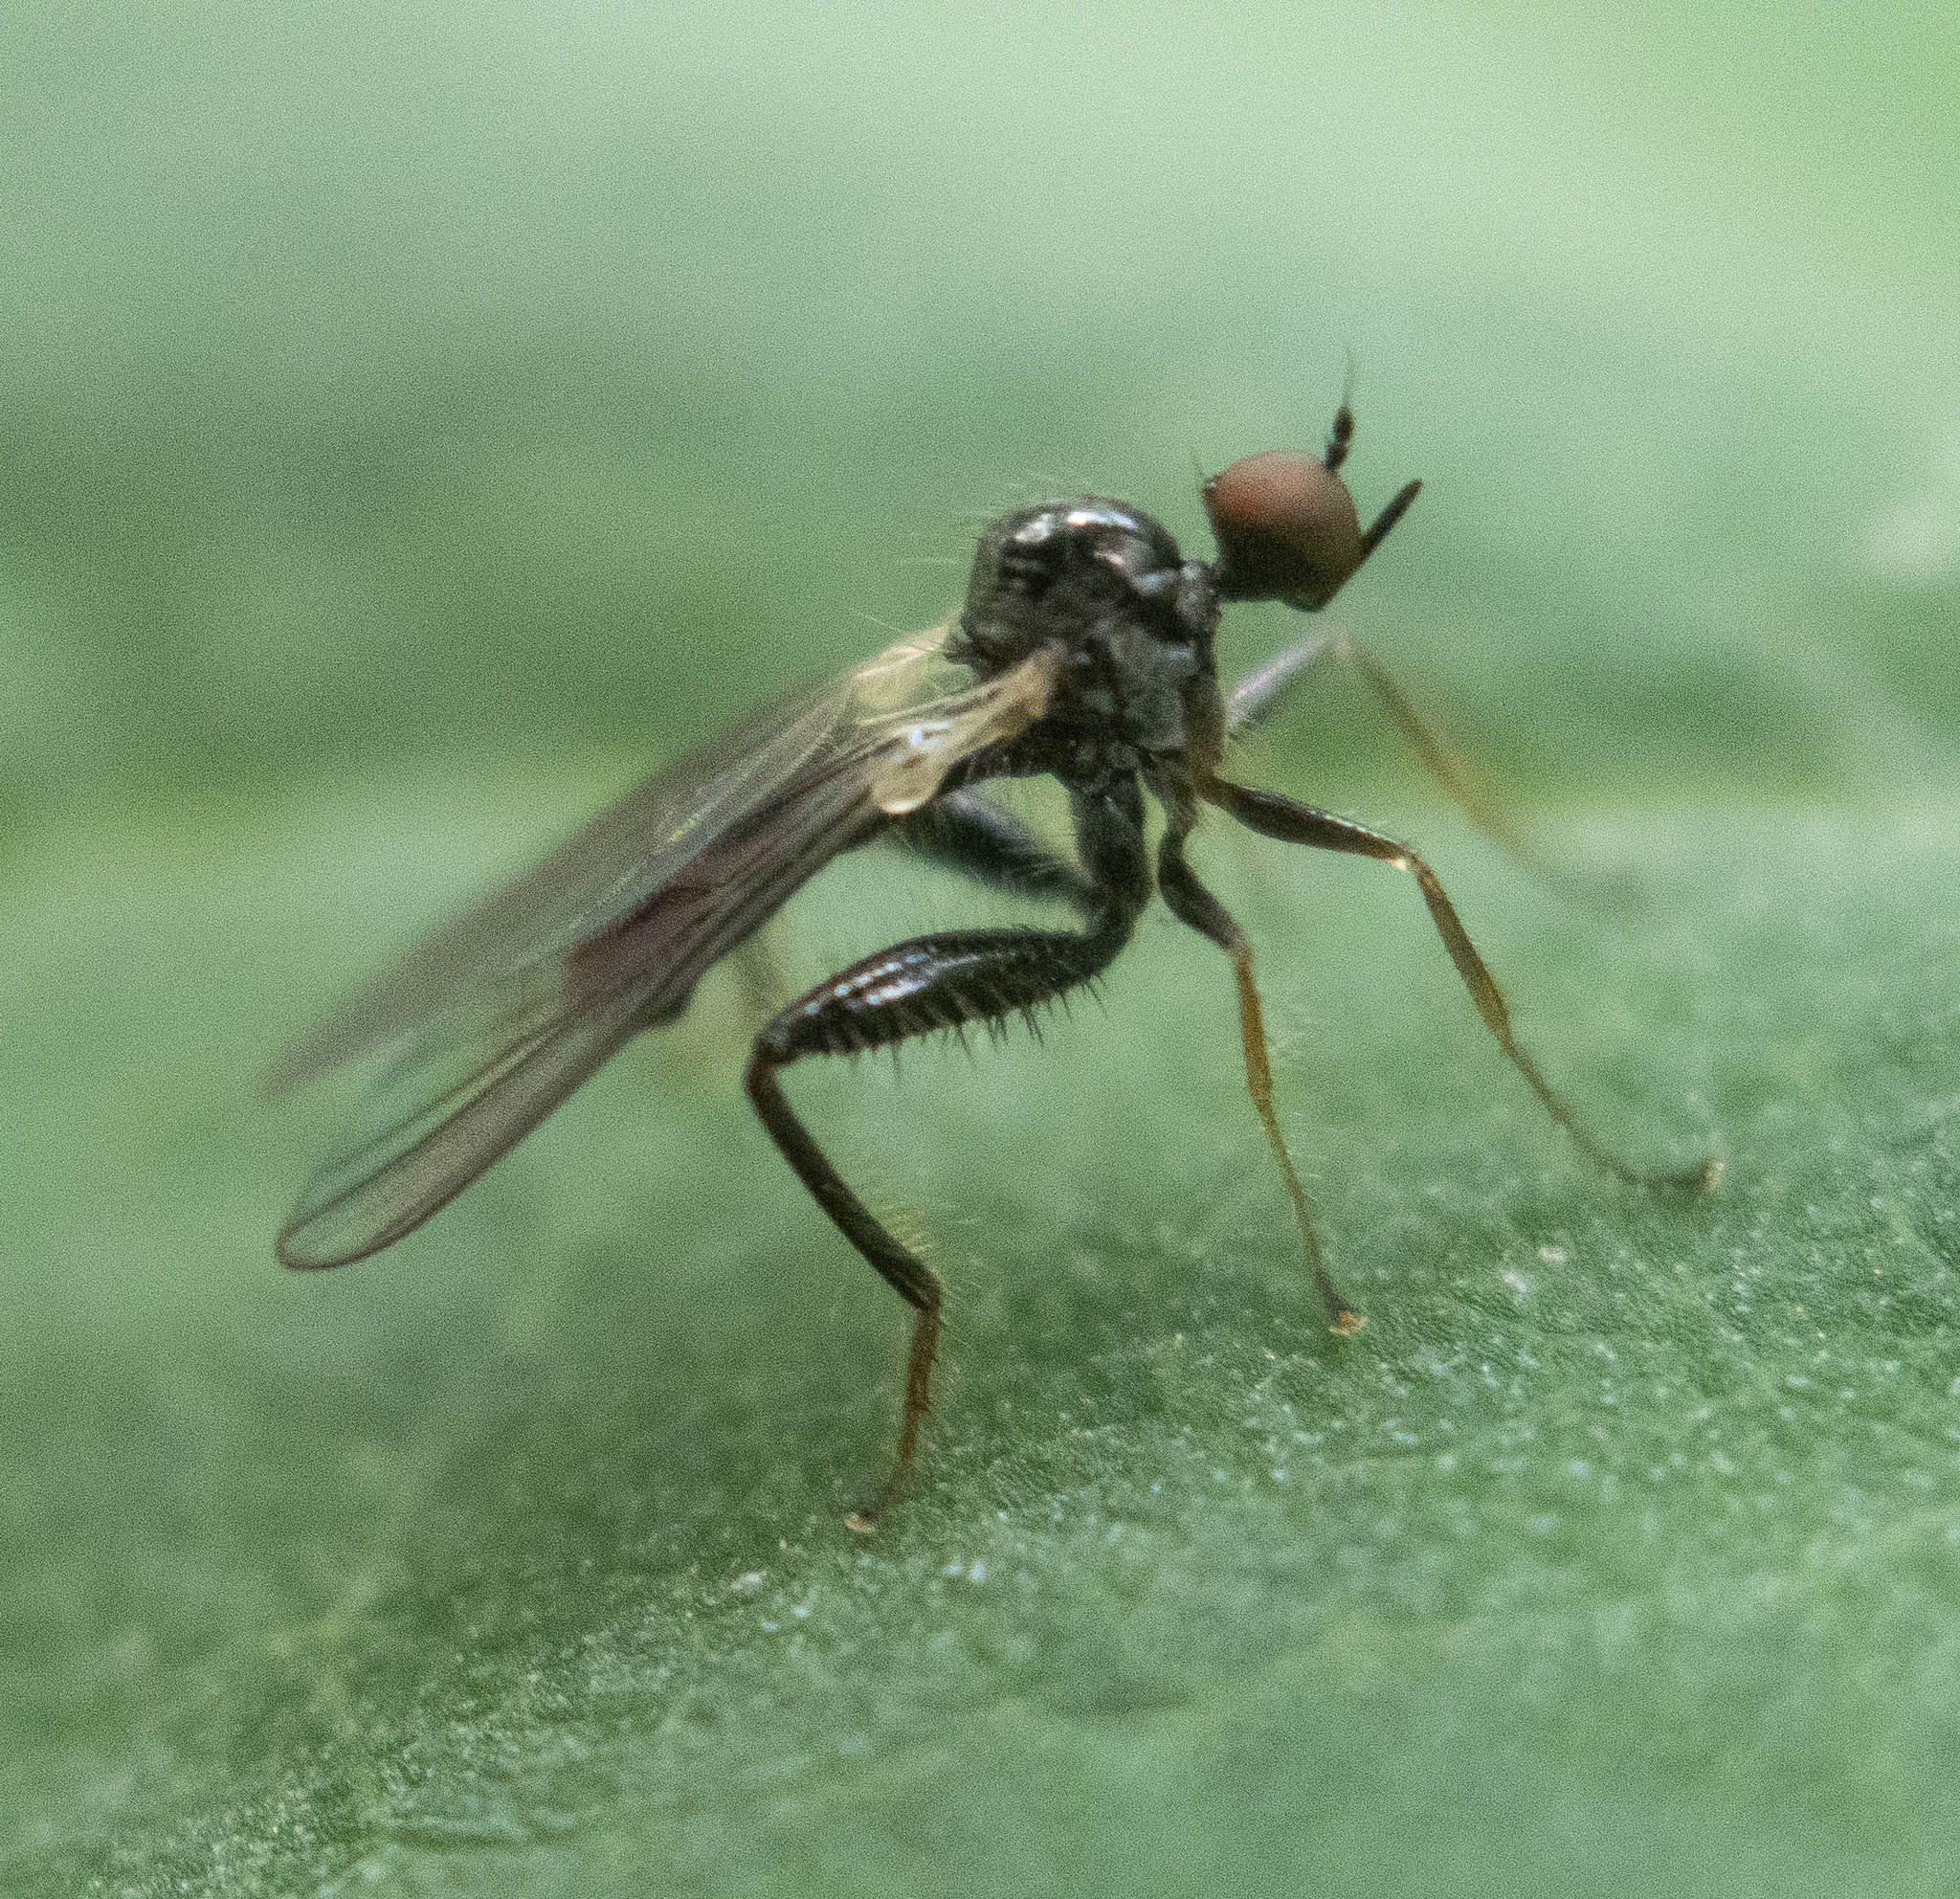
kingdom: Animalia
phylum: Arthropoda
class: Insecta
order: Diptera
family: Hybotidae
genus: Hybos
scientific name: Hybos reversus
